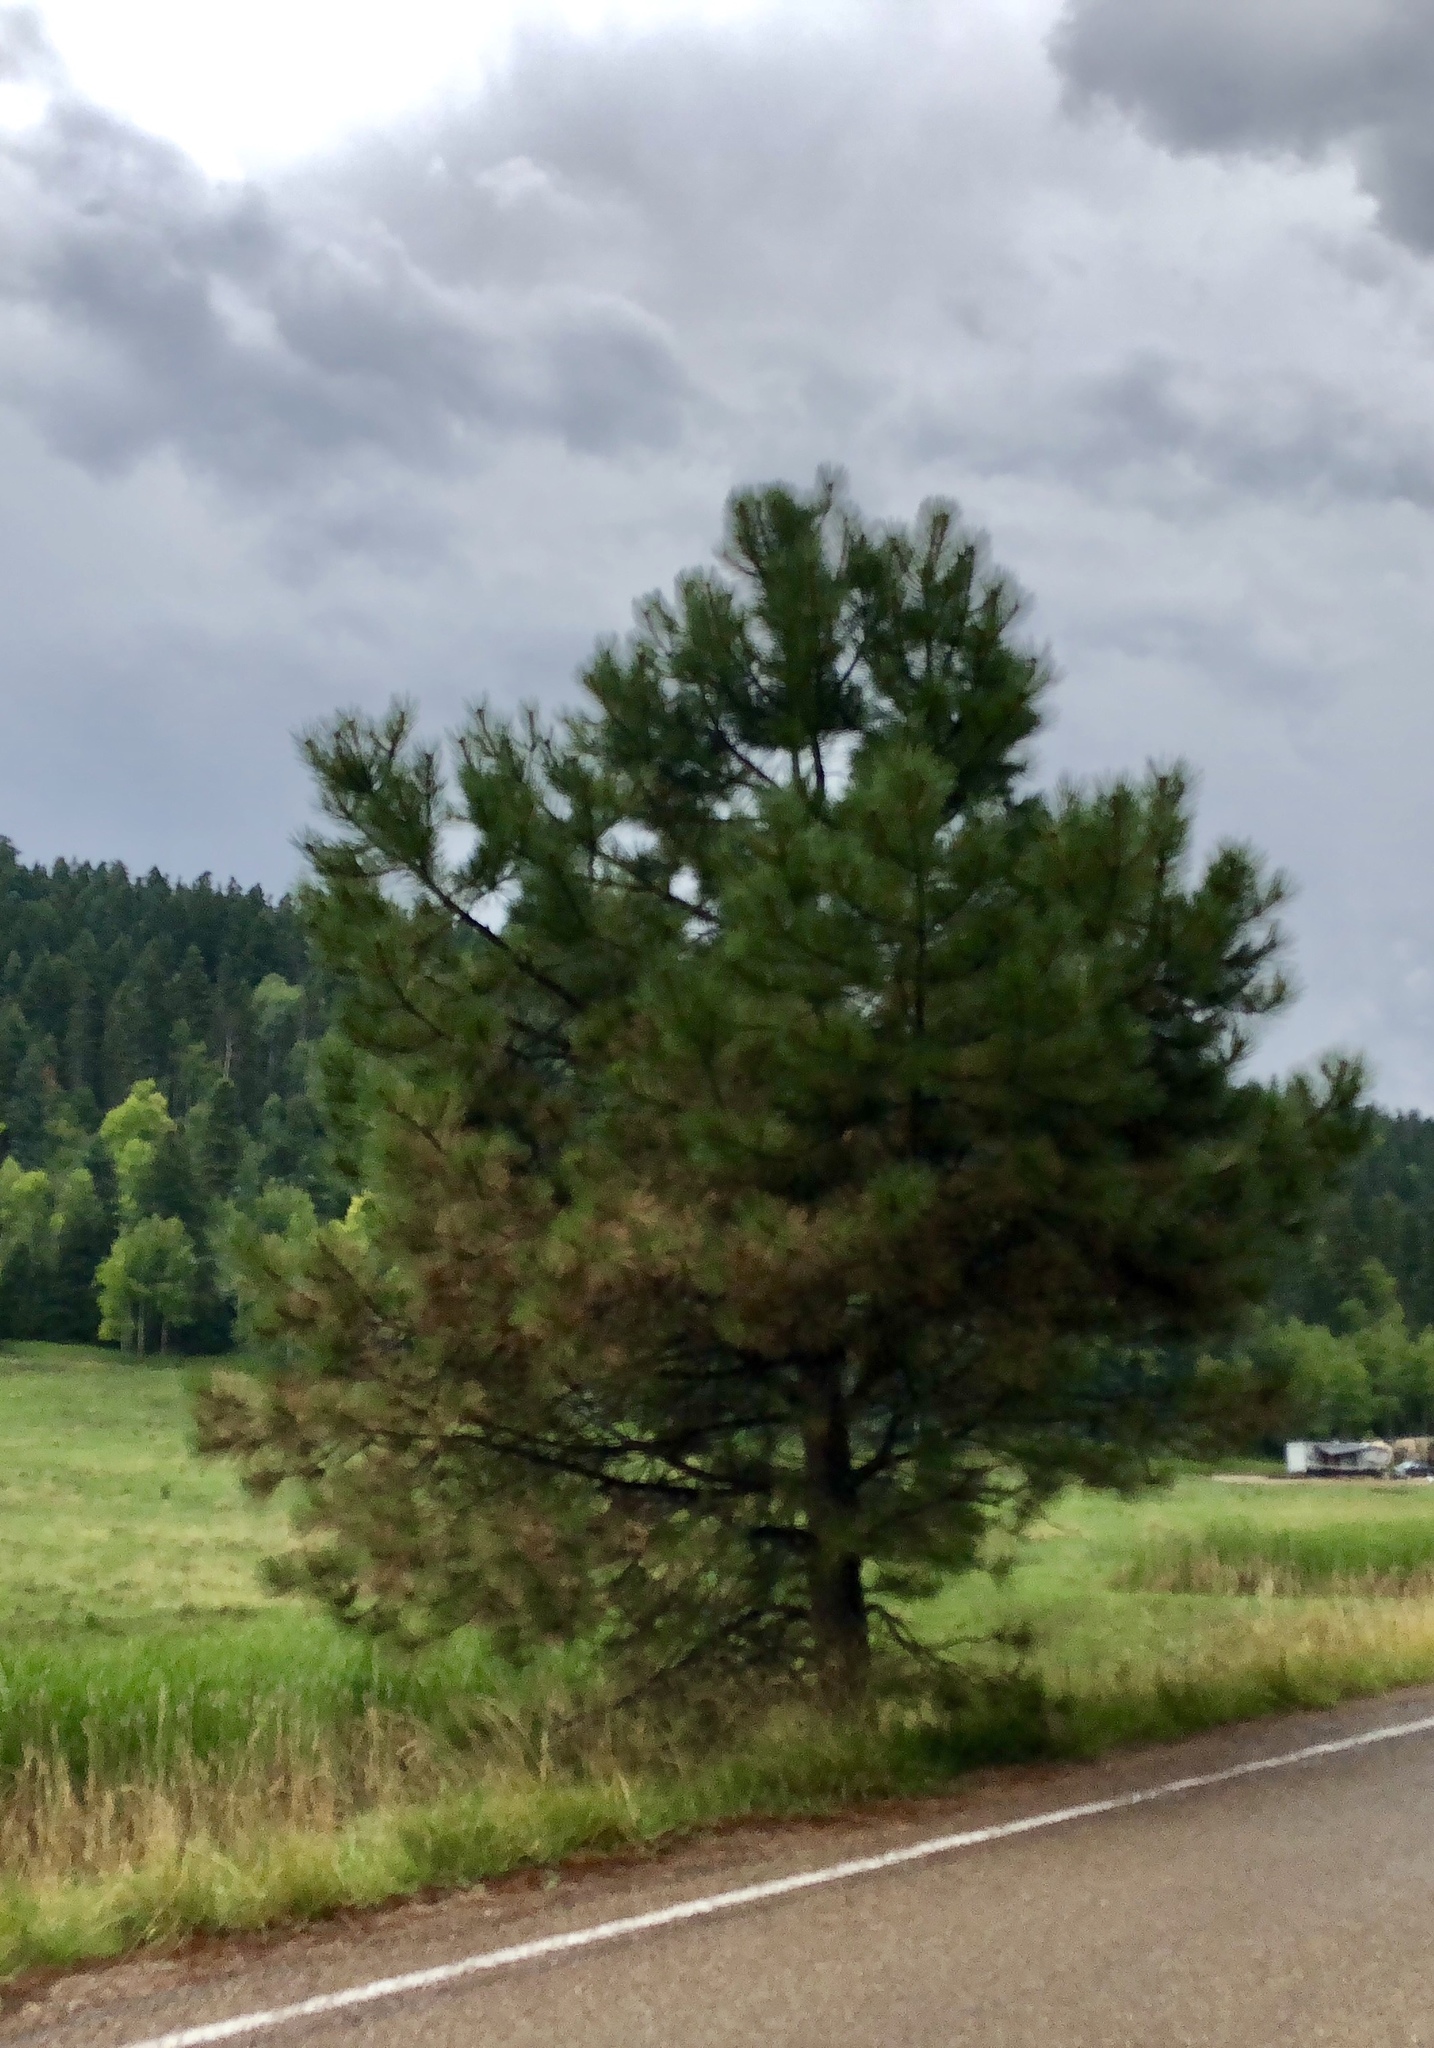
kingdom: Plantae
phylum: Tracheophyta
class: Pinopsida
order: Pinales
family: Pinaceae
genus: Pinus
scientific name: Pinus ponderosa
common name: Western yellow-pine
